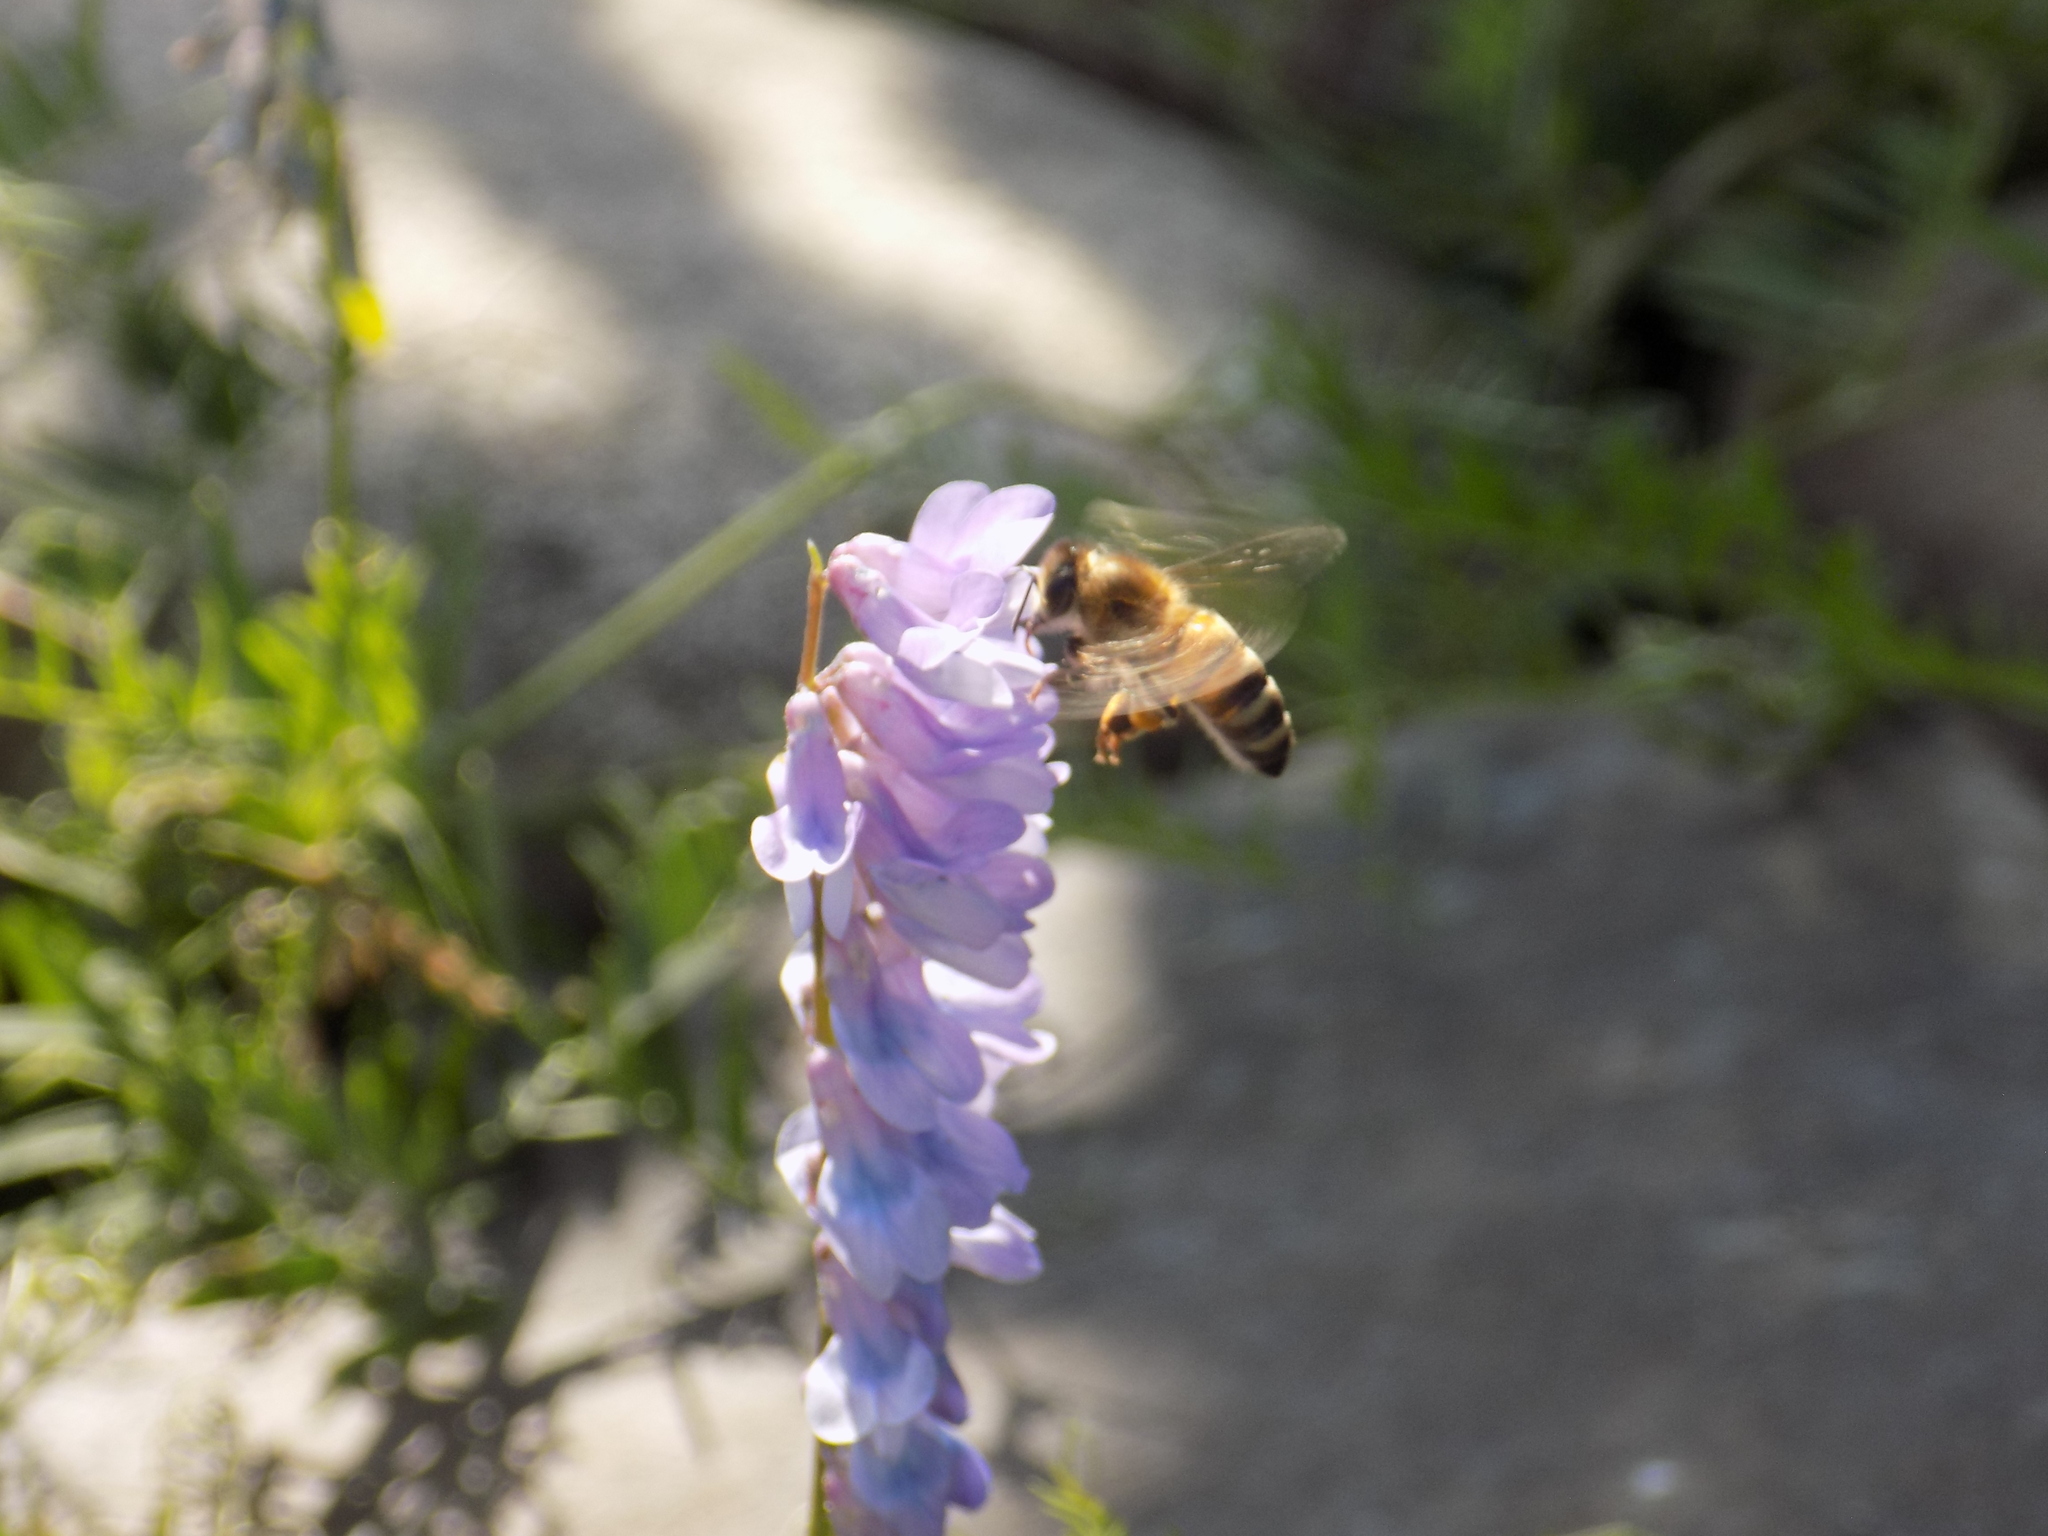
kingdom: Animalia
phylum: Arthropoda
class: Insecta
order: Hymenoptera
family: Apidae
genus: Apis
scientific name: Apis mellifera
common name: Honey bee
